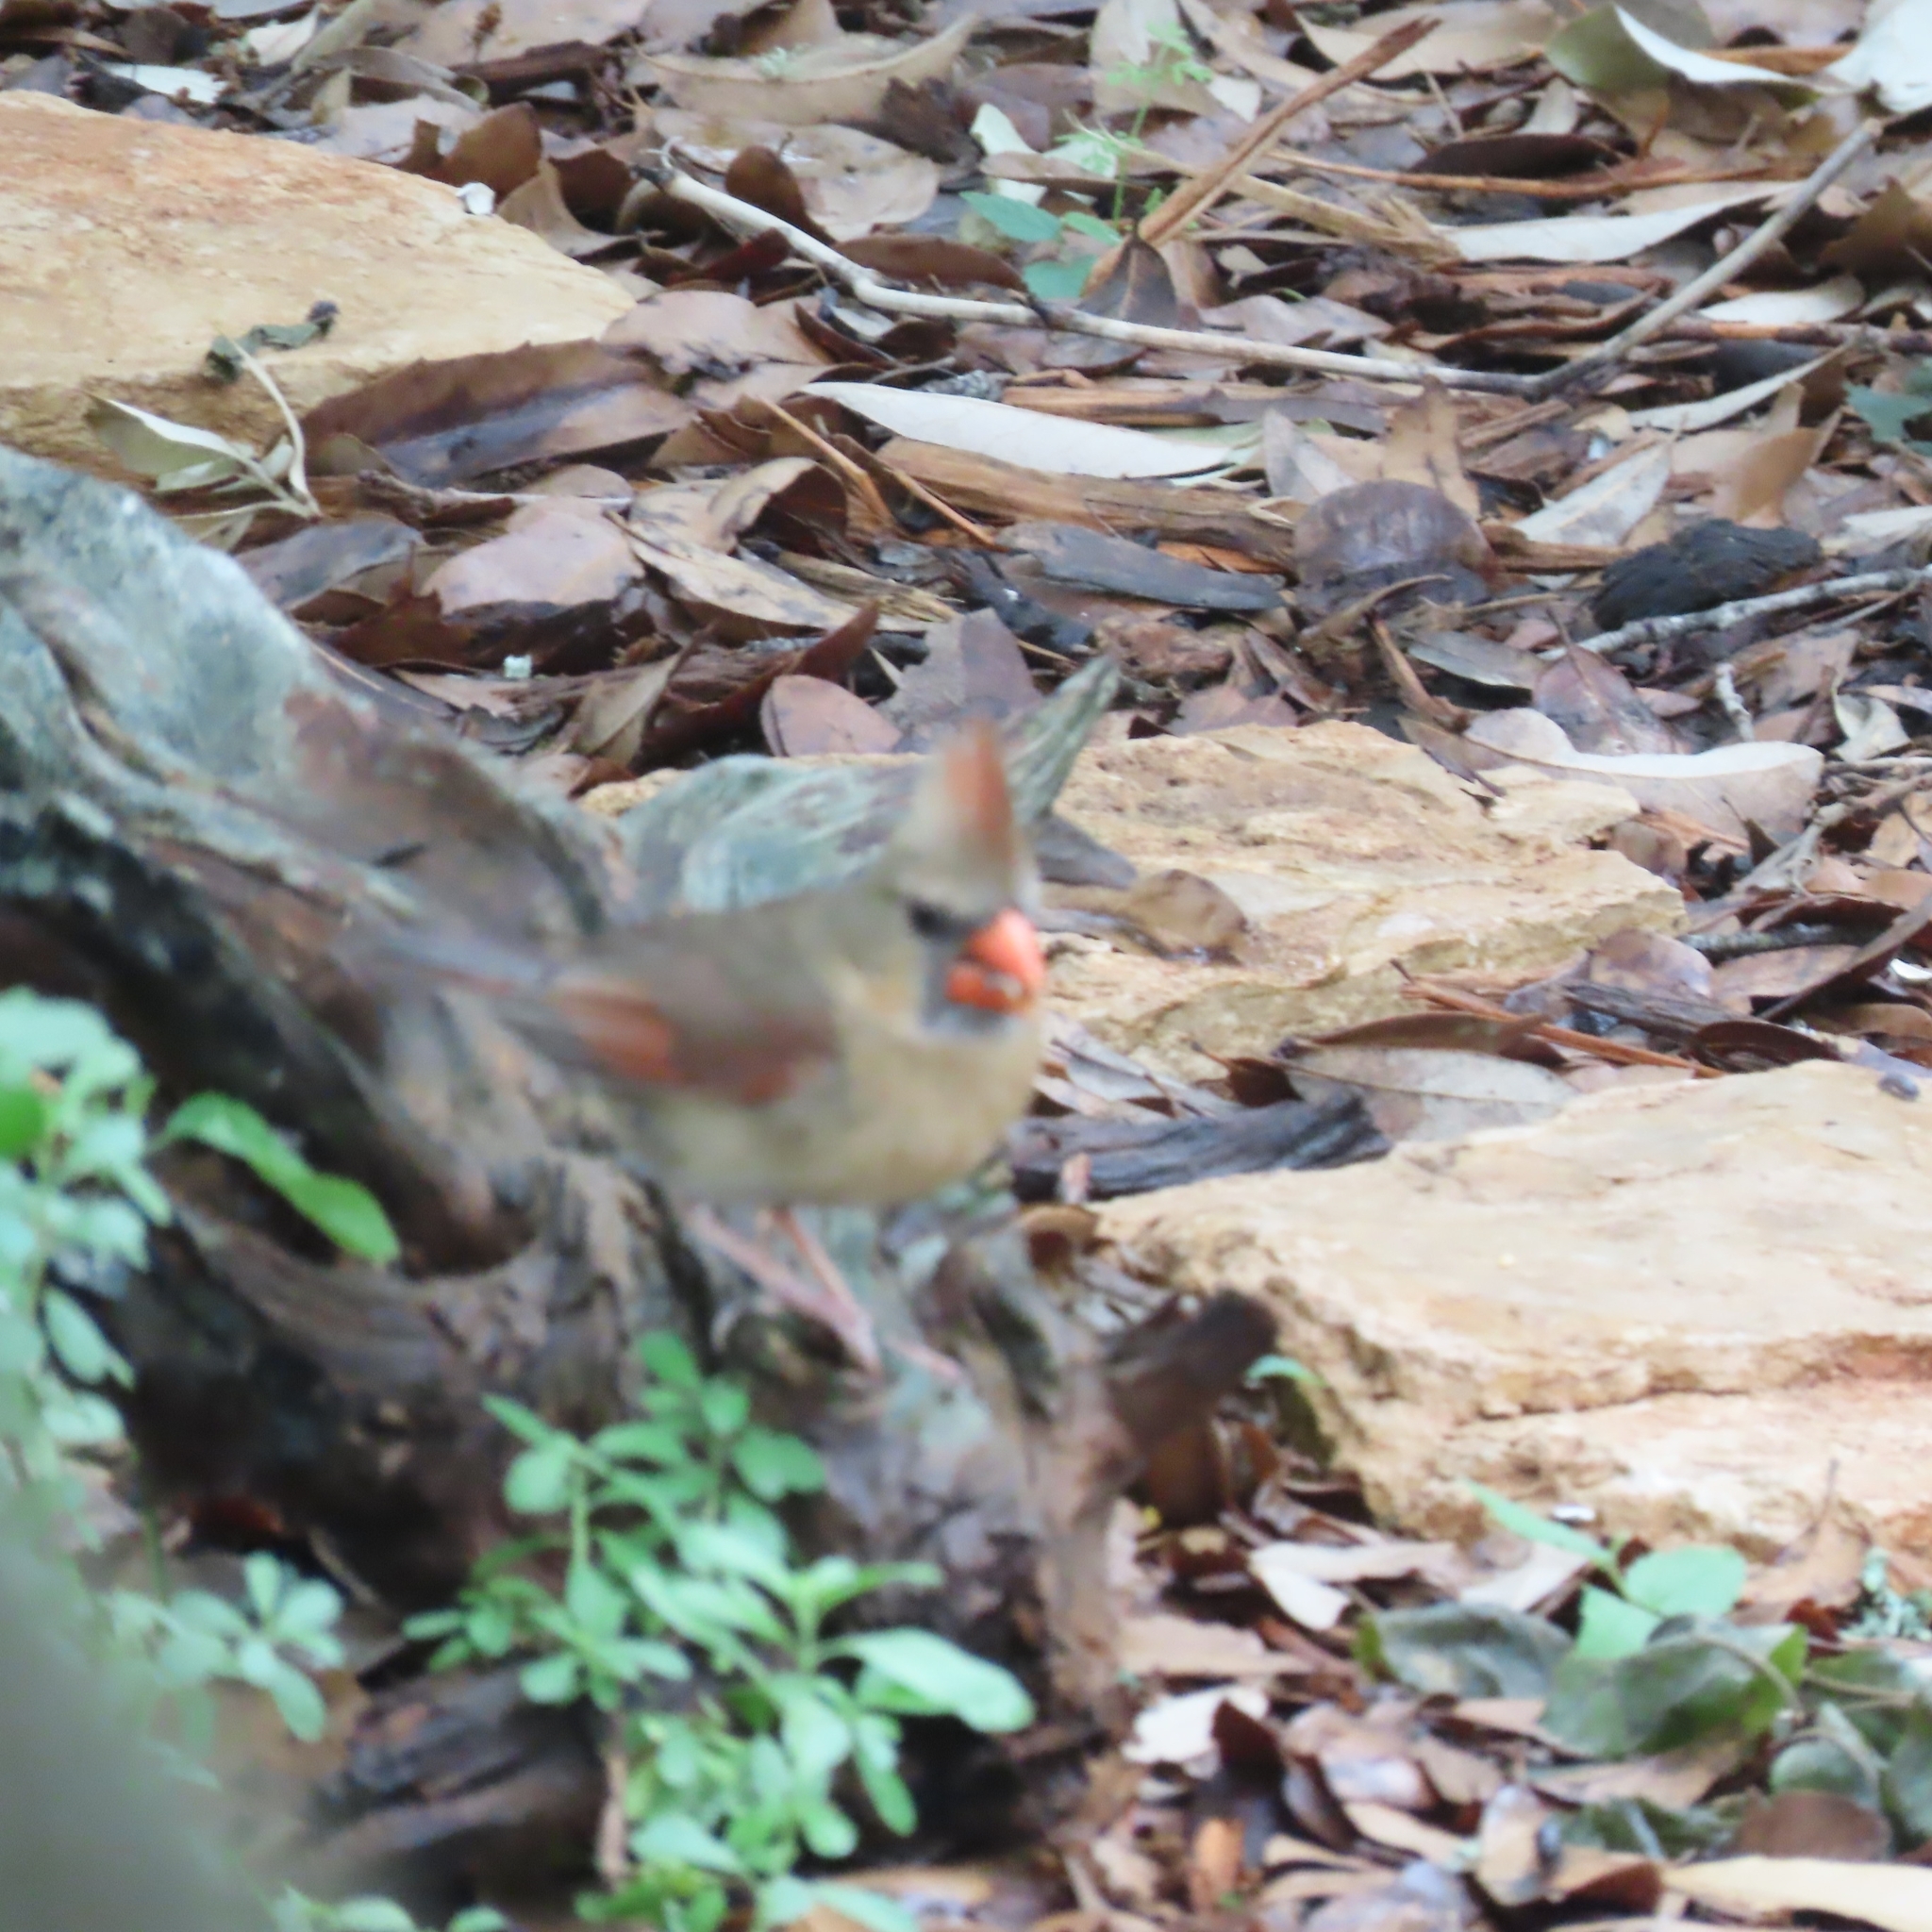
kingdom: Animalia
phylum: Chordata
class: Aves
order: Passeriformes
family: Cardinalidae
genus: Cardinalis
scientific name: Cardinalis cardinalis
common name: Northern cardinal
